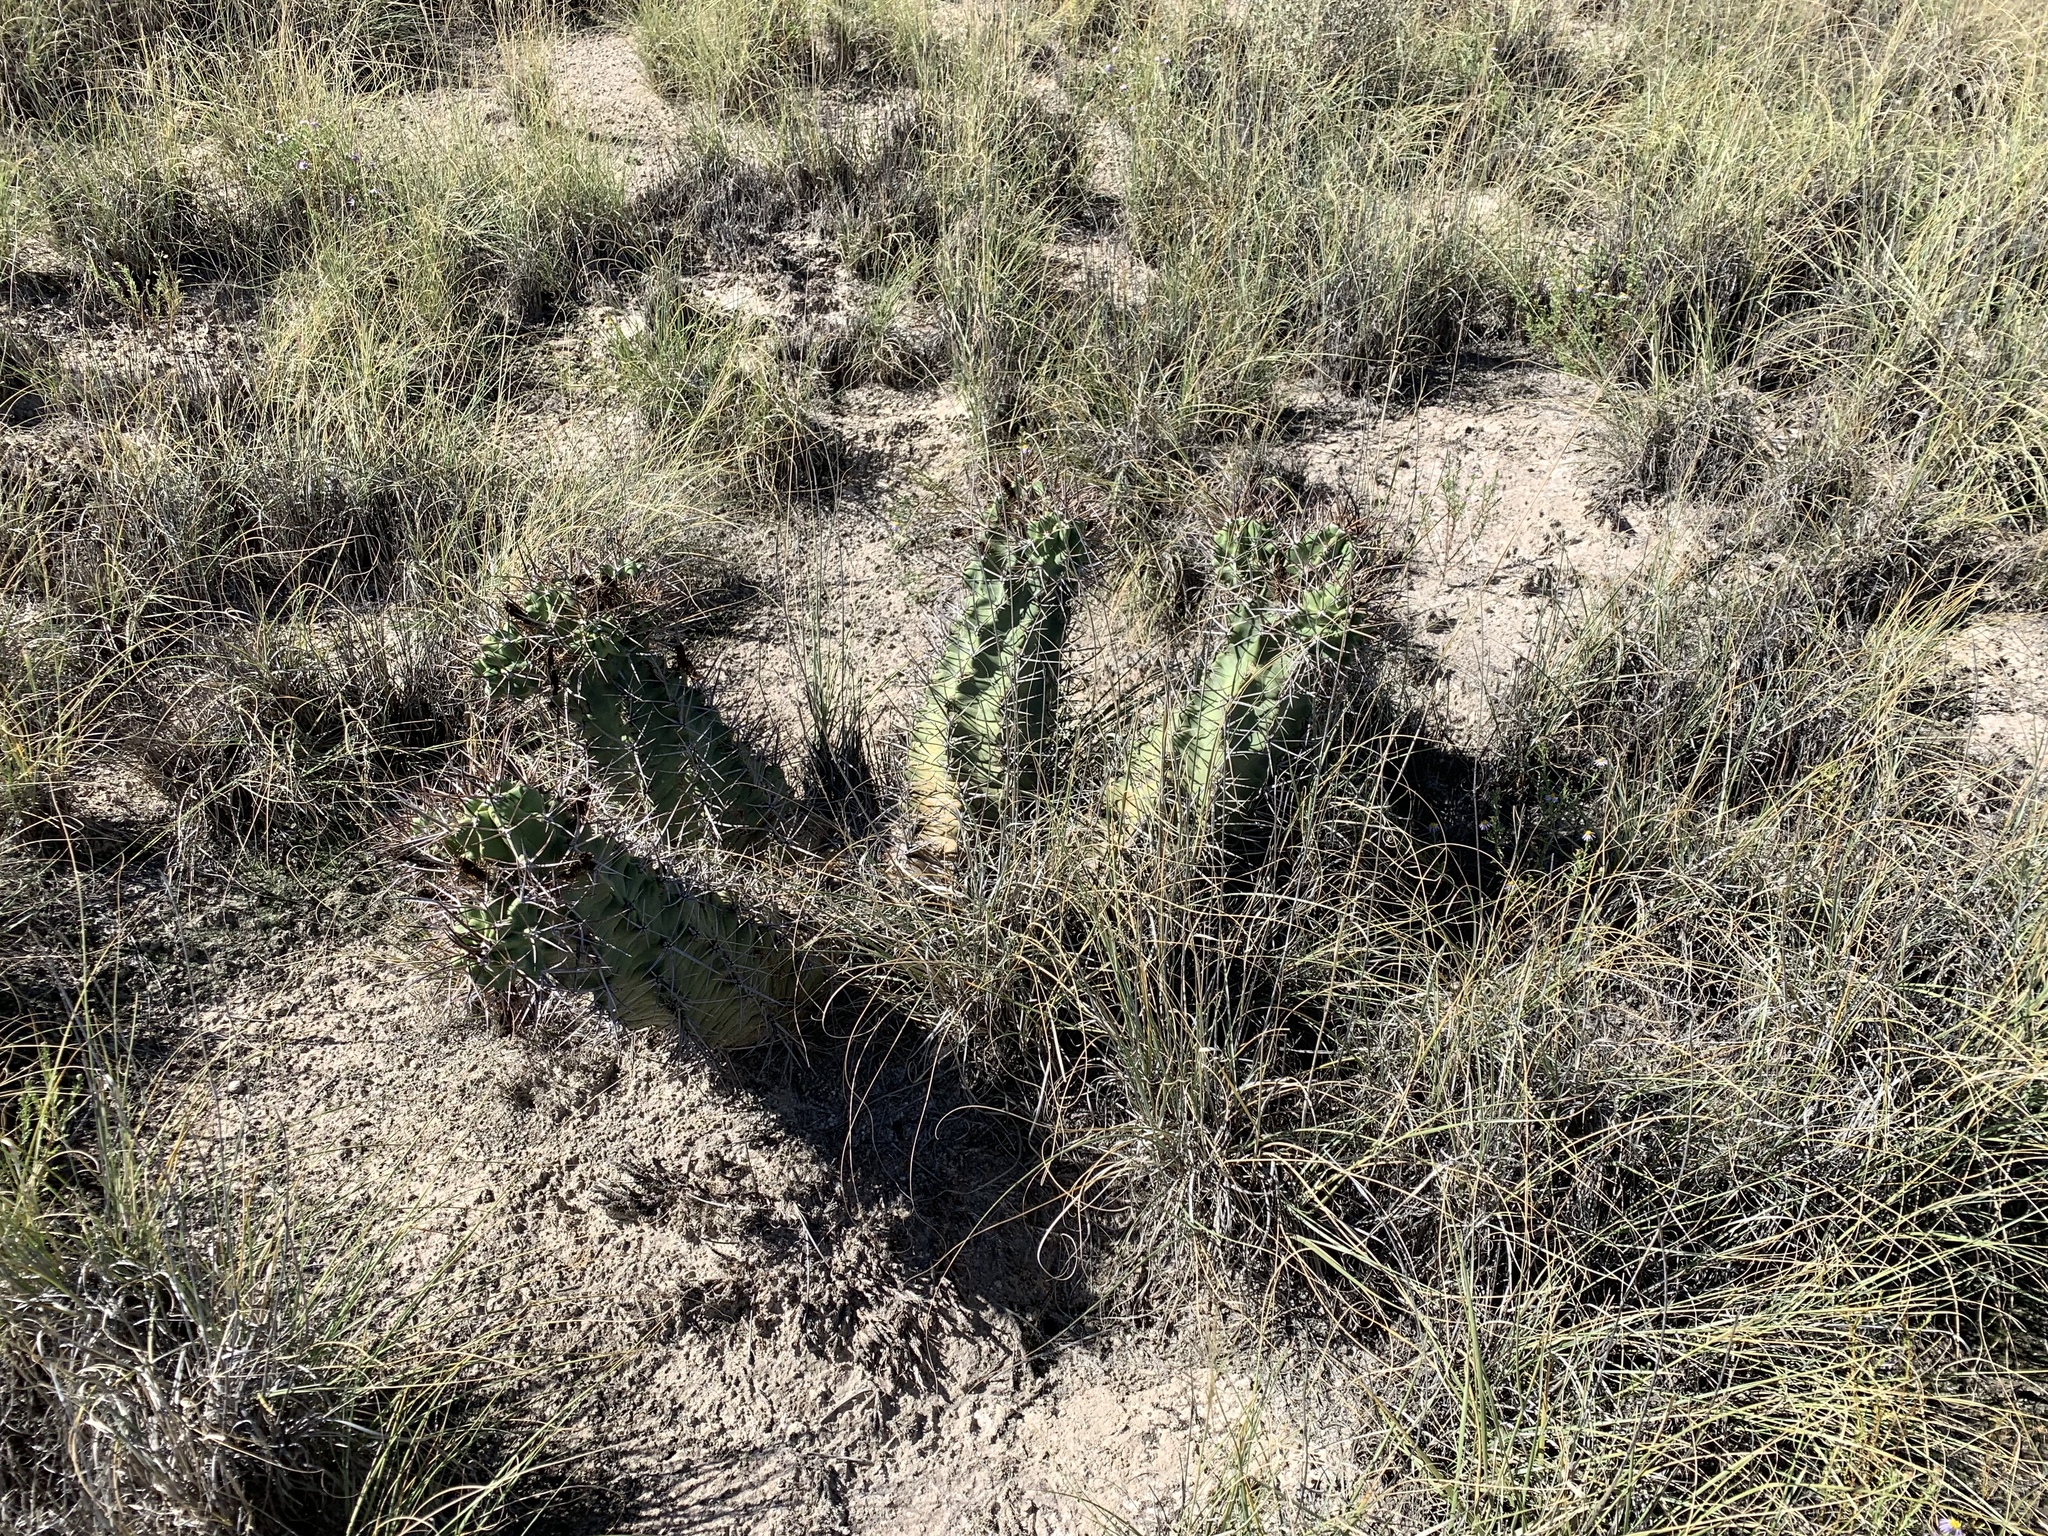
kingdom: Plantae
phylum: Tracheophyta
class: Magnoliopsida
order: Caryophyllales
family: Cactaceae
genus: Echinocereus
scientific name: Echinocereus triglochidiatus
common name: Claretcup hedgehog
